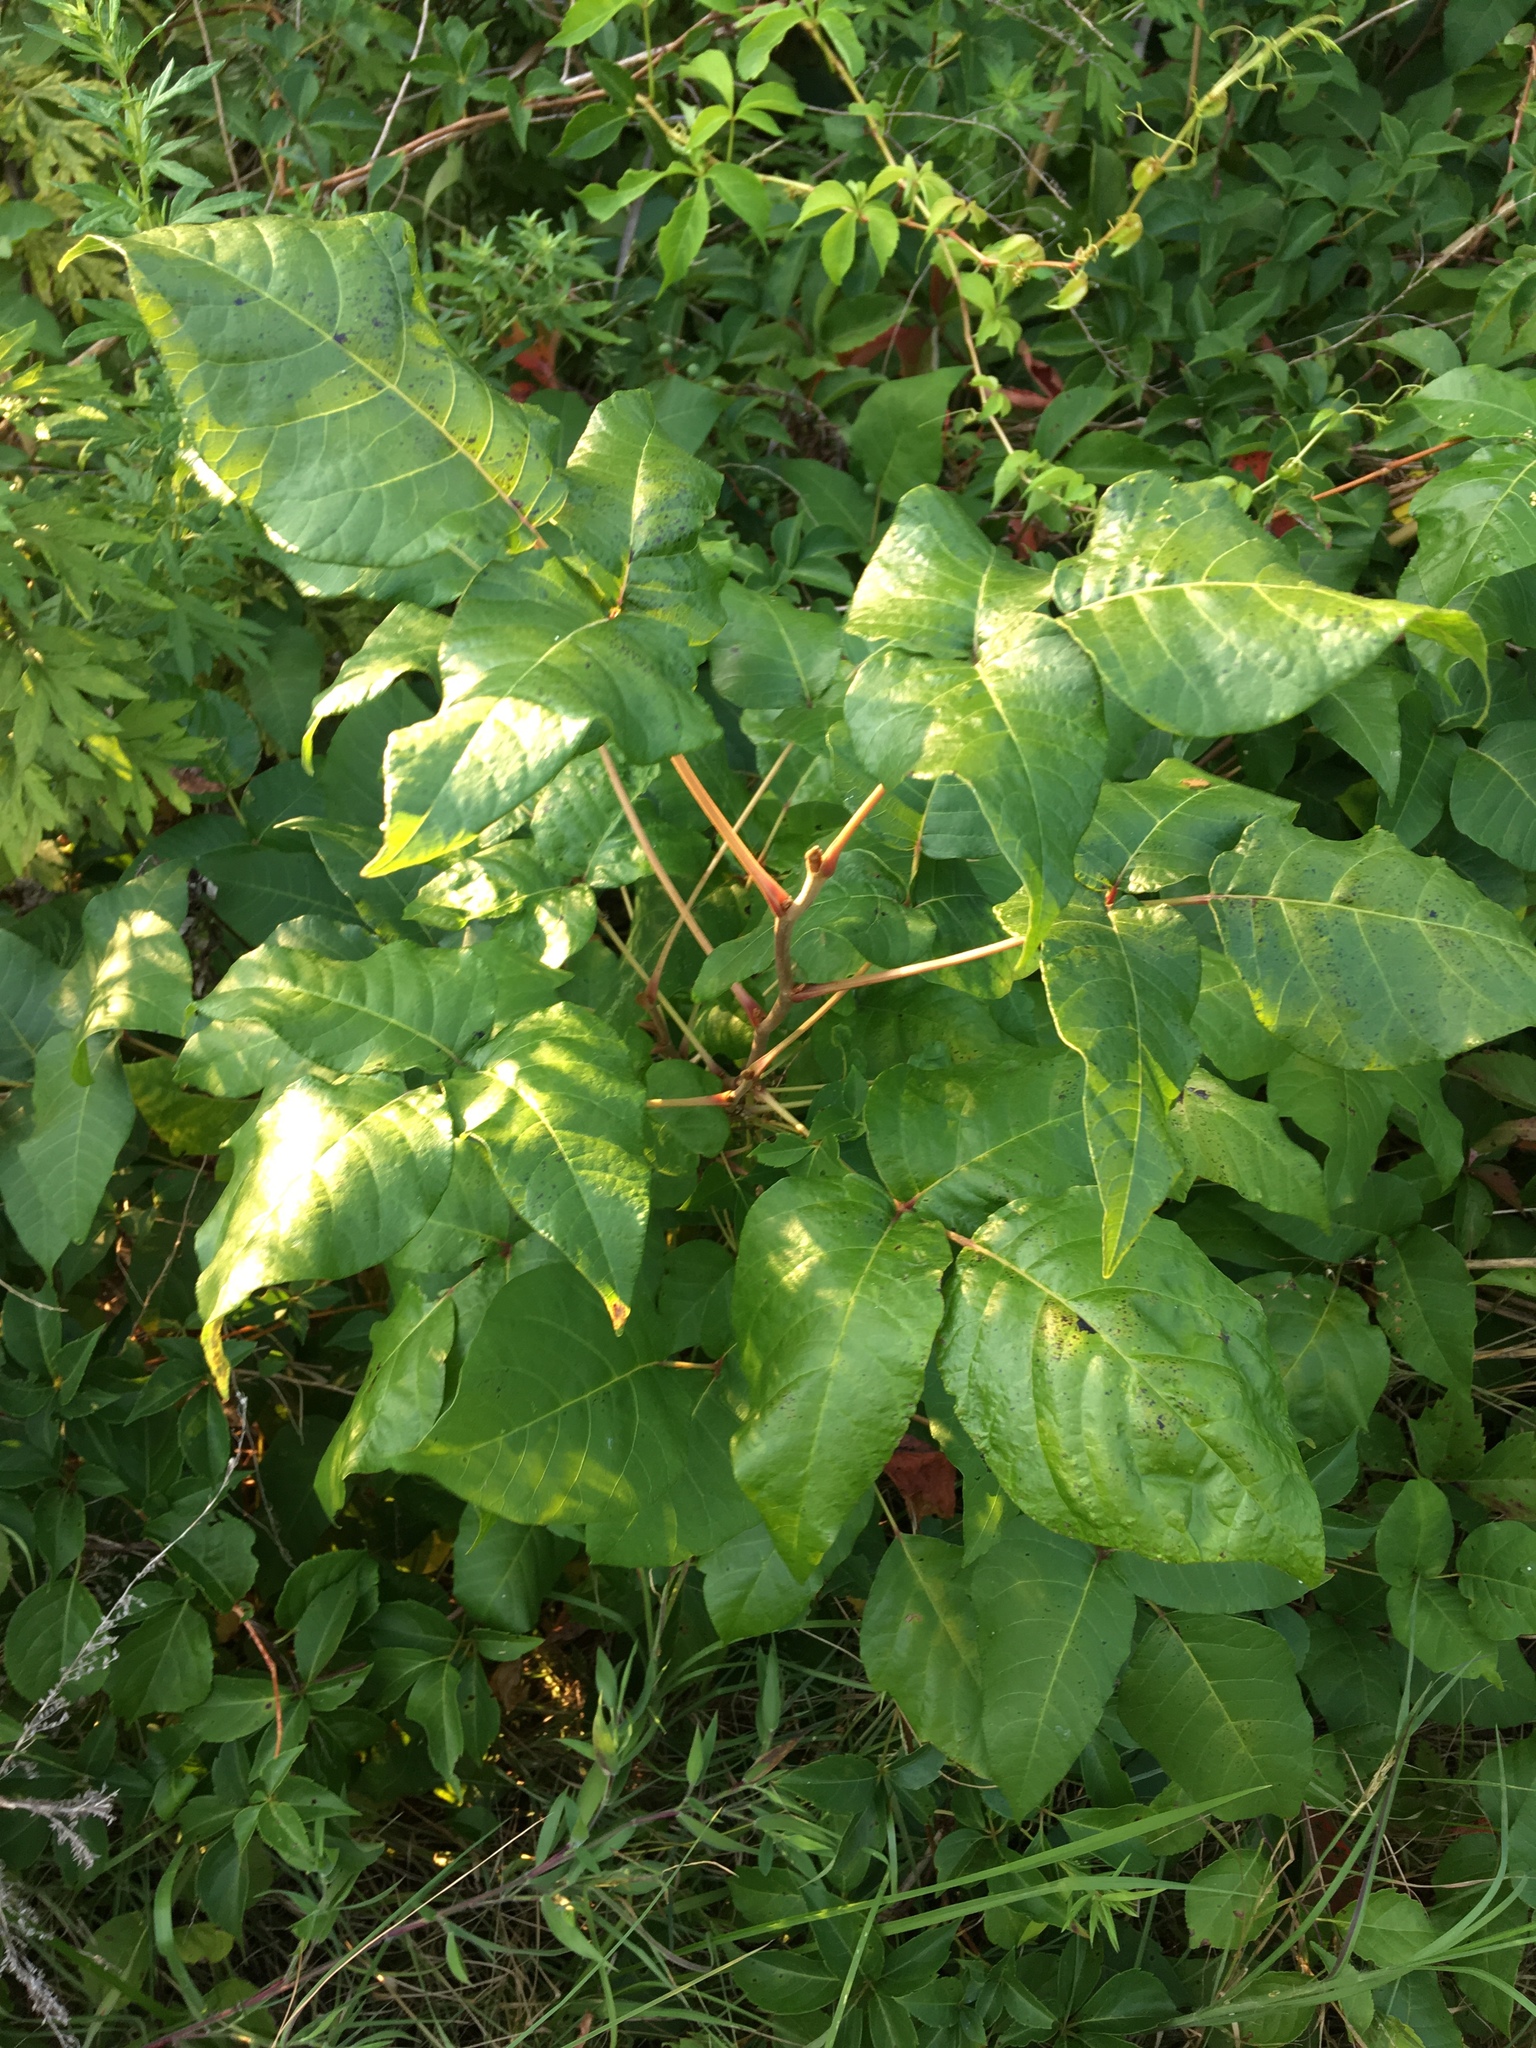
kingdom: Plantae
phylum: Tracheophyta
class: Magnoliopsida
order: Sapindales
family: Anacardiaceae
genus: Toxicodendron
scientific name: Toxicodendron radicans
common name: Poison ivy
